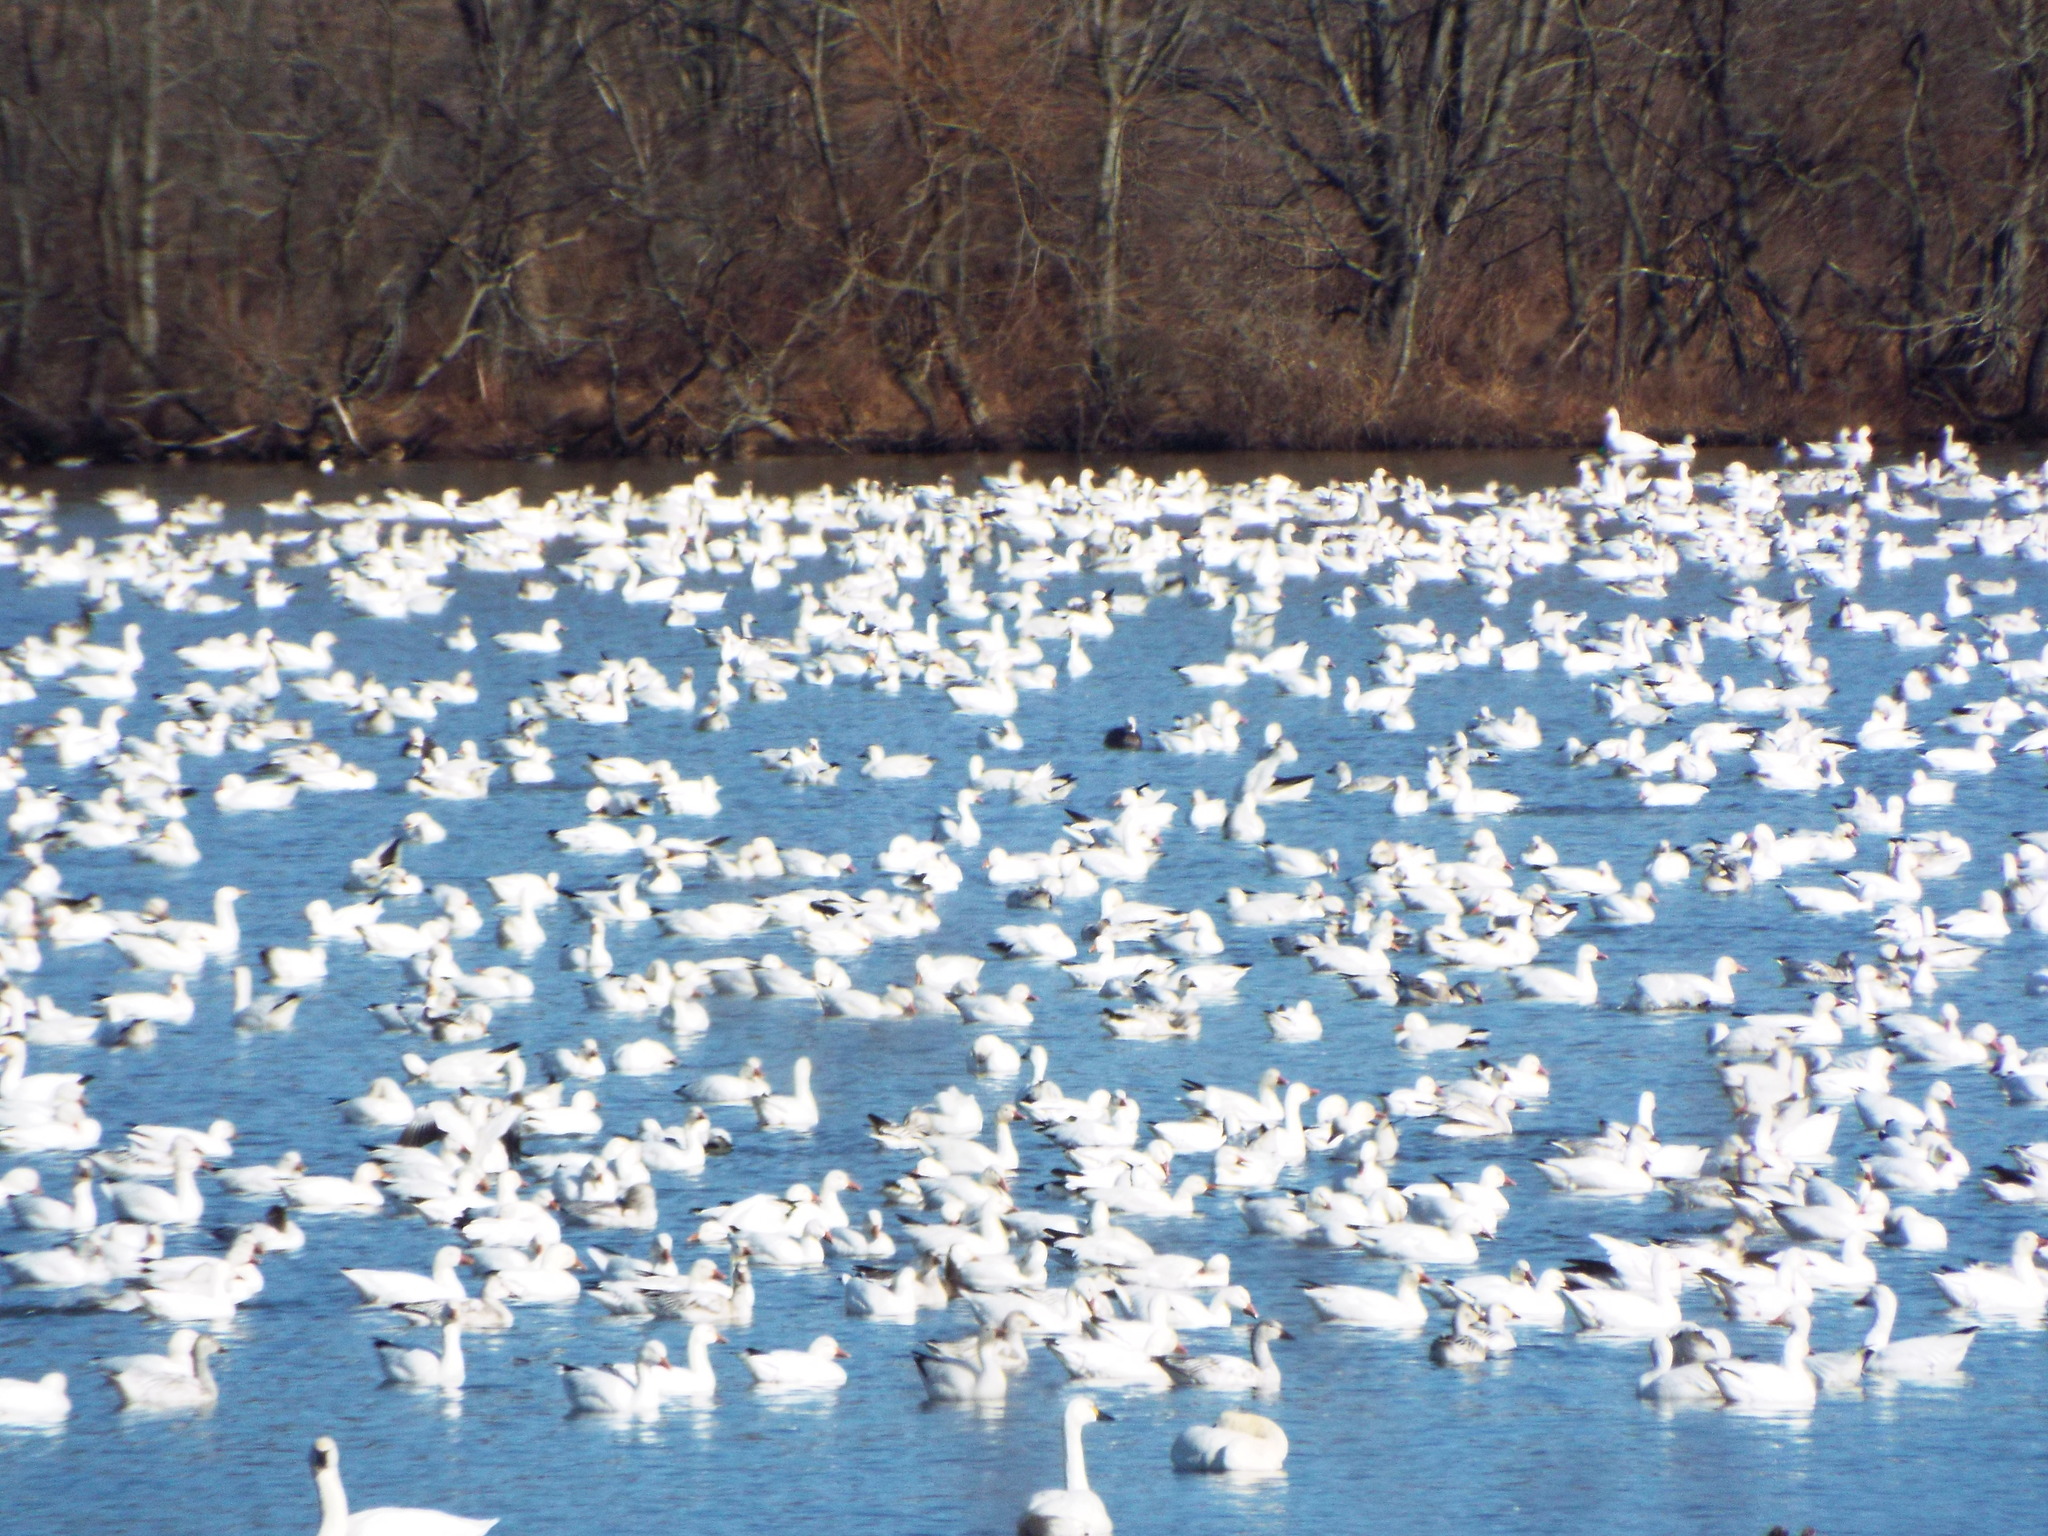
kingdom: Animalia
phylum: Chordata
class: Aves
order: Anseriformes
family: Anatidae
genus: Anser
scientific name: Anser caerulescens
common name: Snow goose
